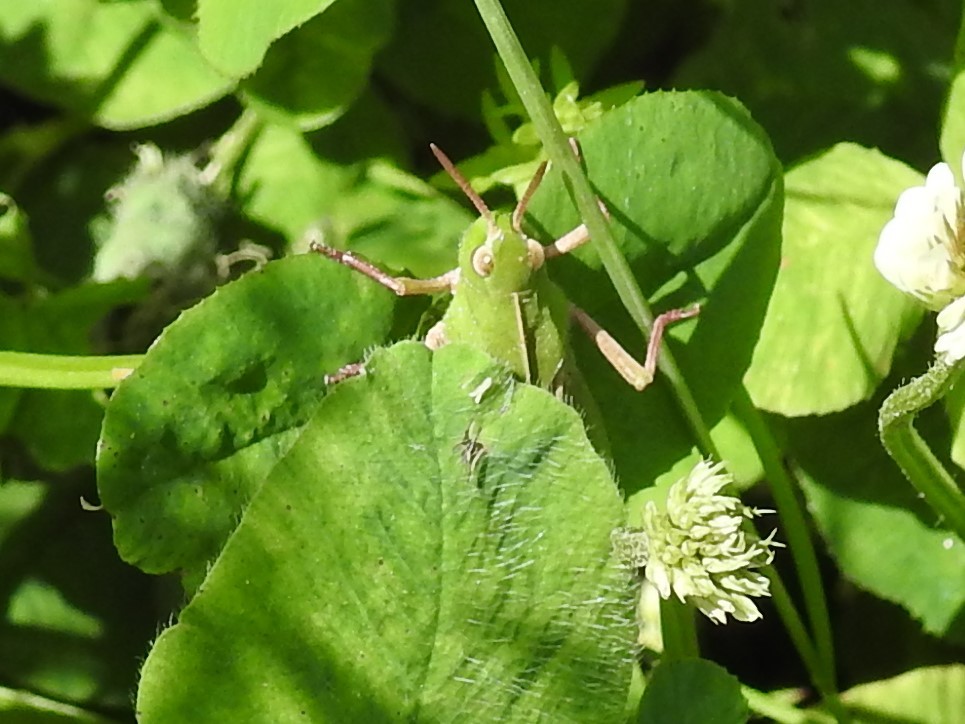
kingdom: Animalia
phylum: Arthropoda
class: Insecta
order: Orthoptera
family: Acrididae
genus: Chortophaga
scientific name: Chortophaga viridifasciata
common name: Green-striped grasshopper
